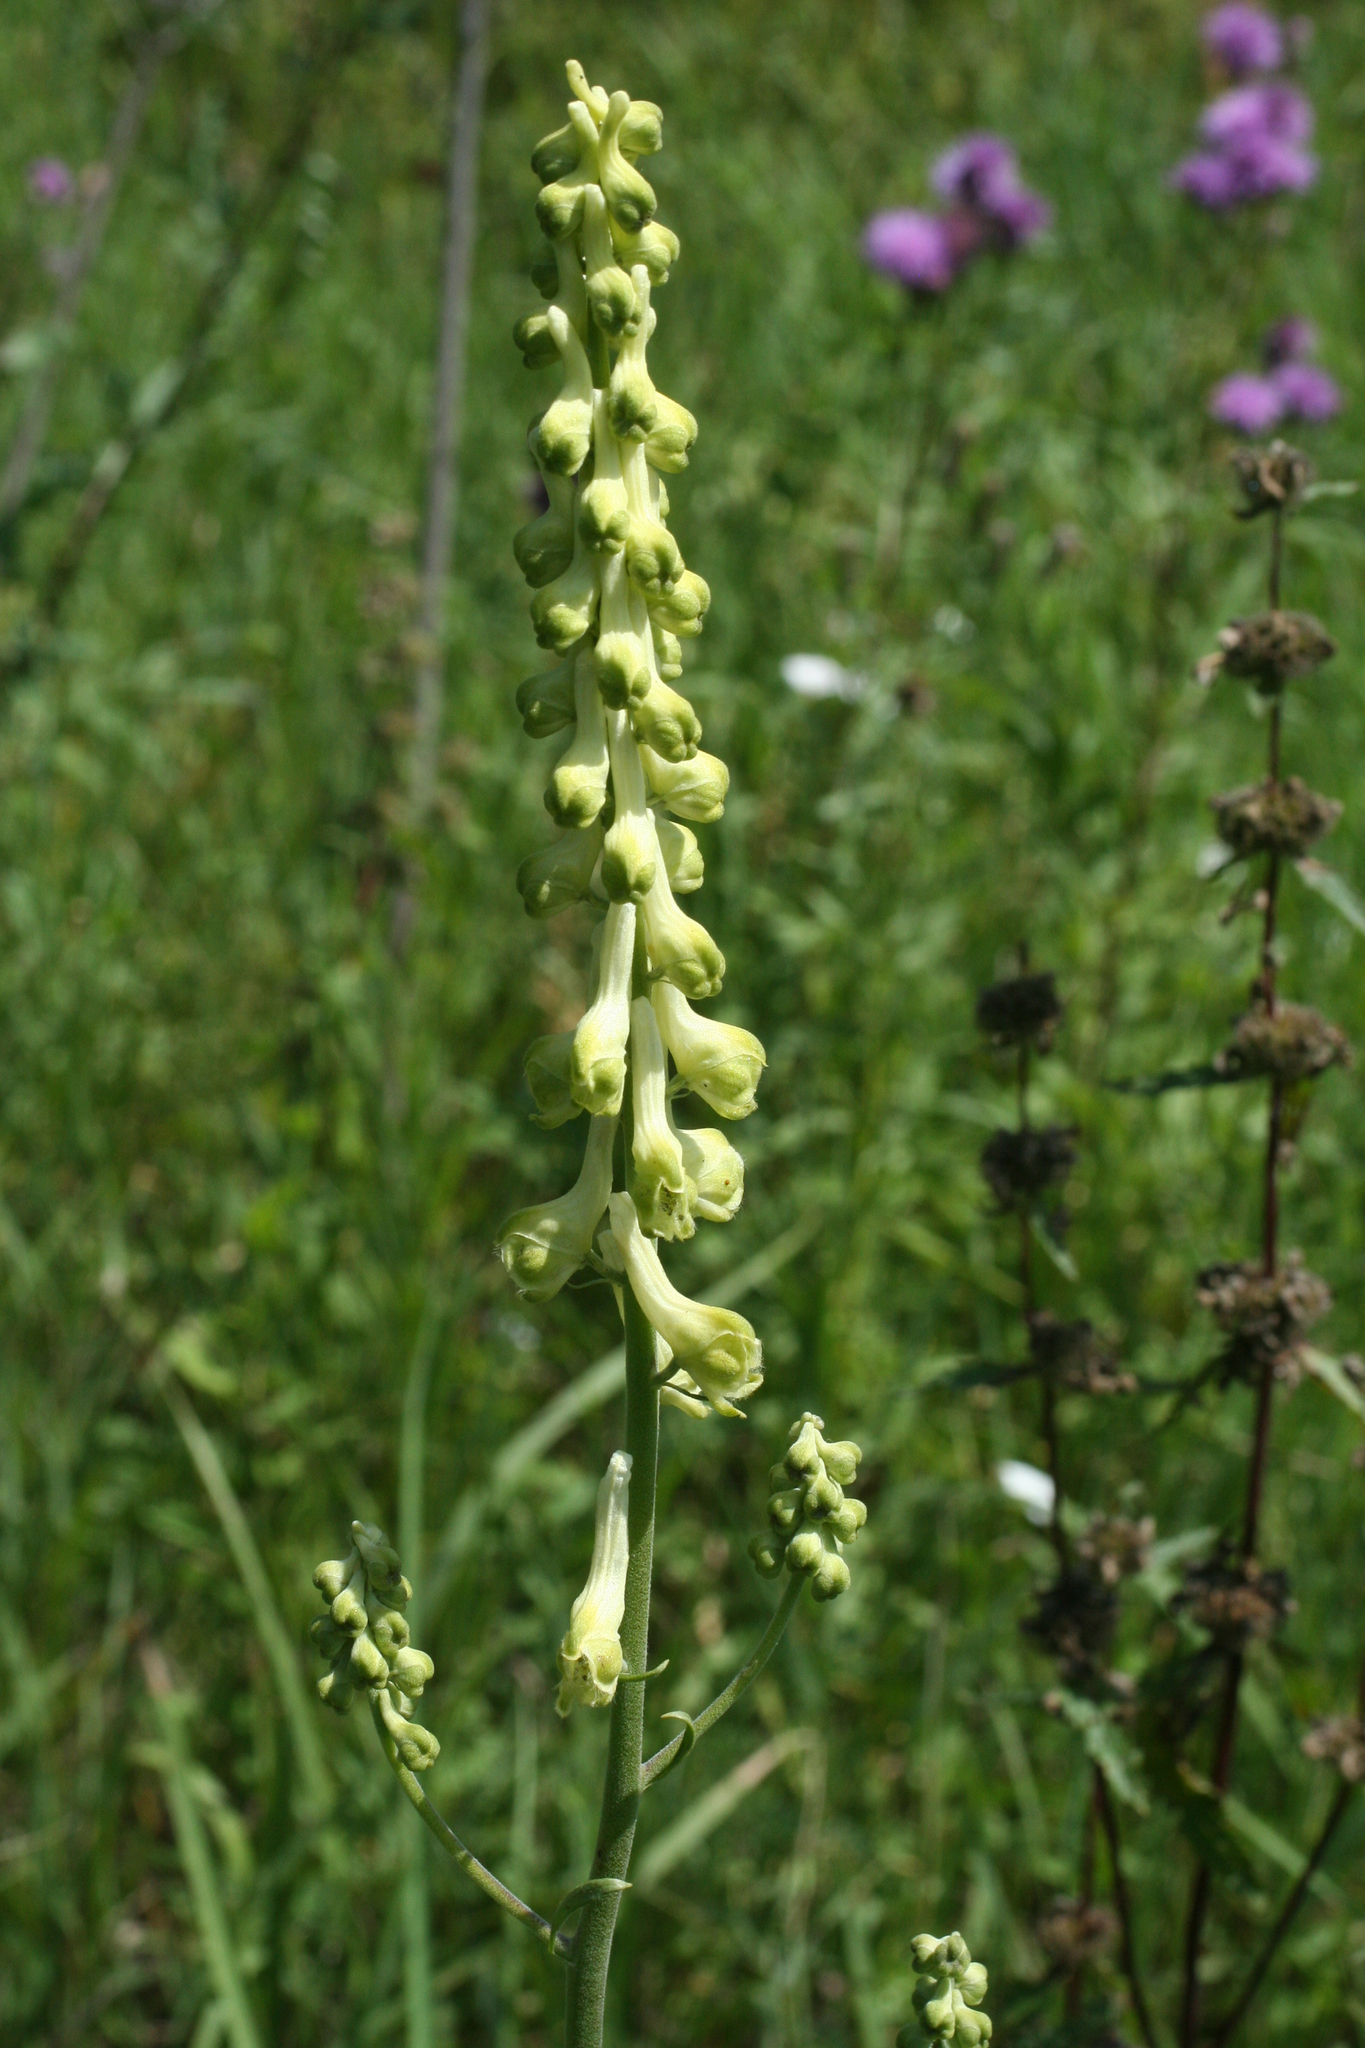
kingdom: Plantae
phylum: Tracheophyta
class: Magnoliopsida
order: Ranunculales
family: Ranunculaceae
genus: Aconitum
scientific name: Aconitum barbatum
